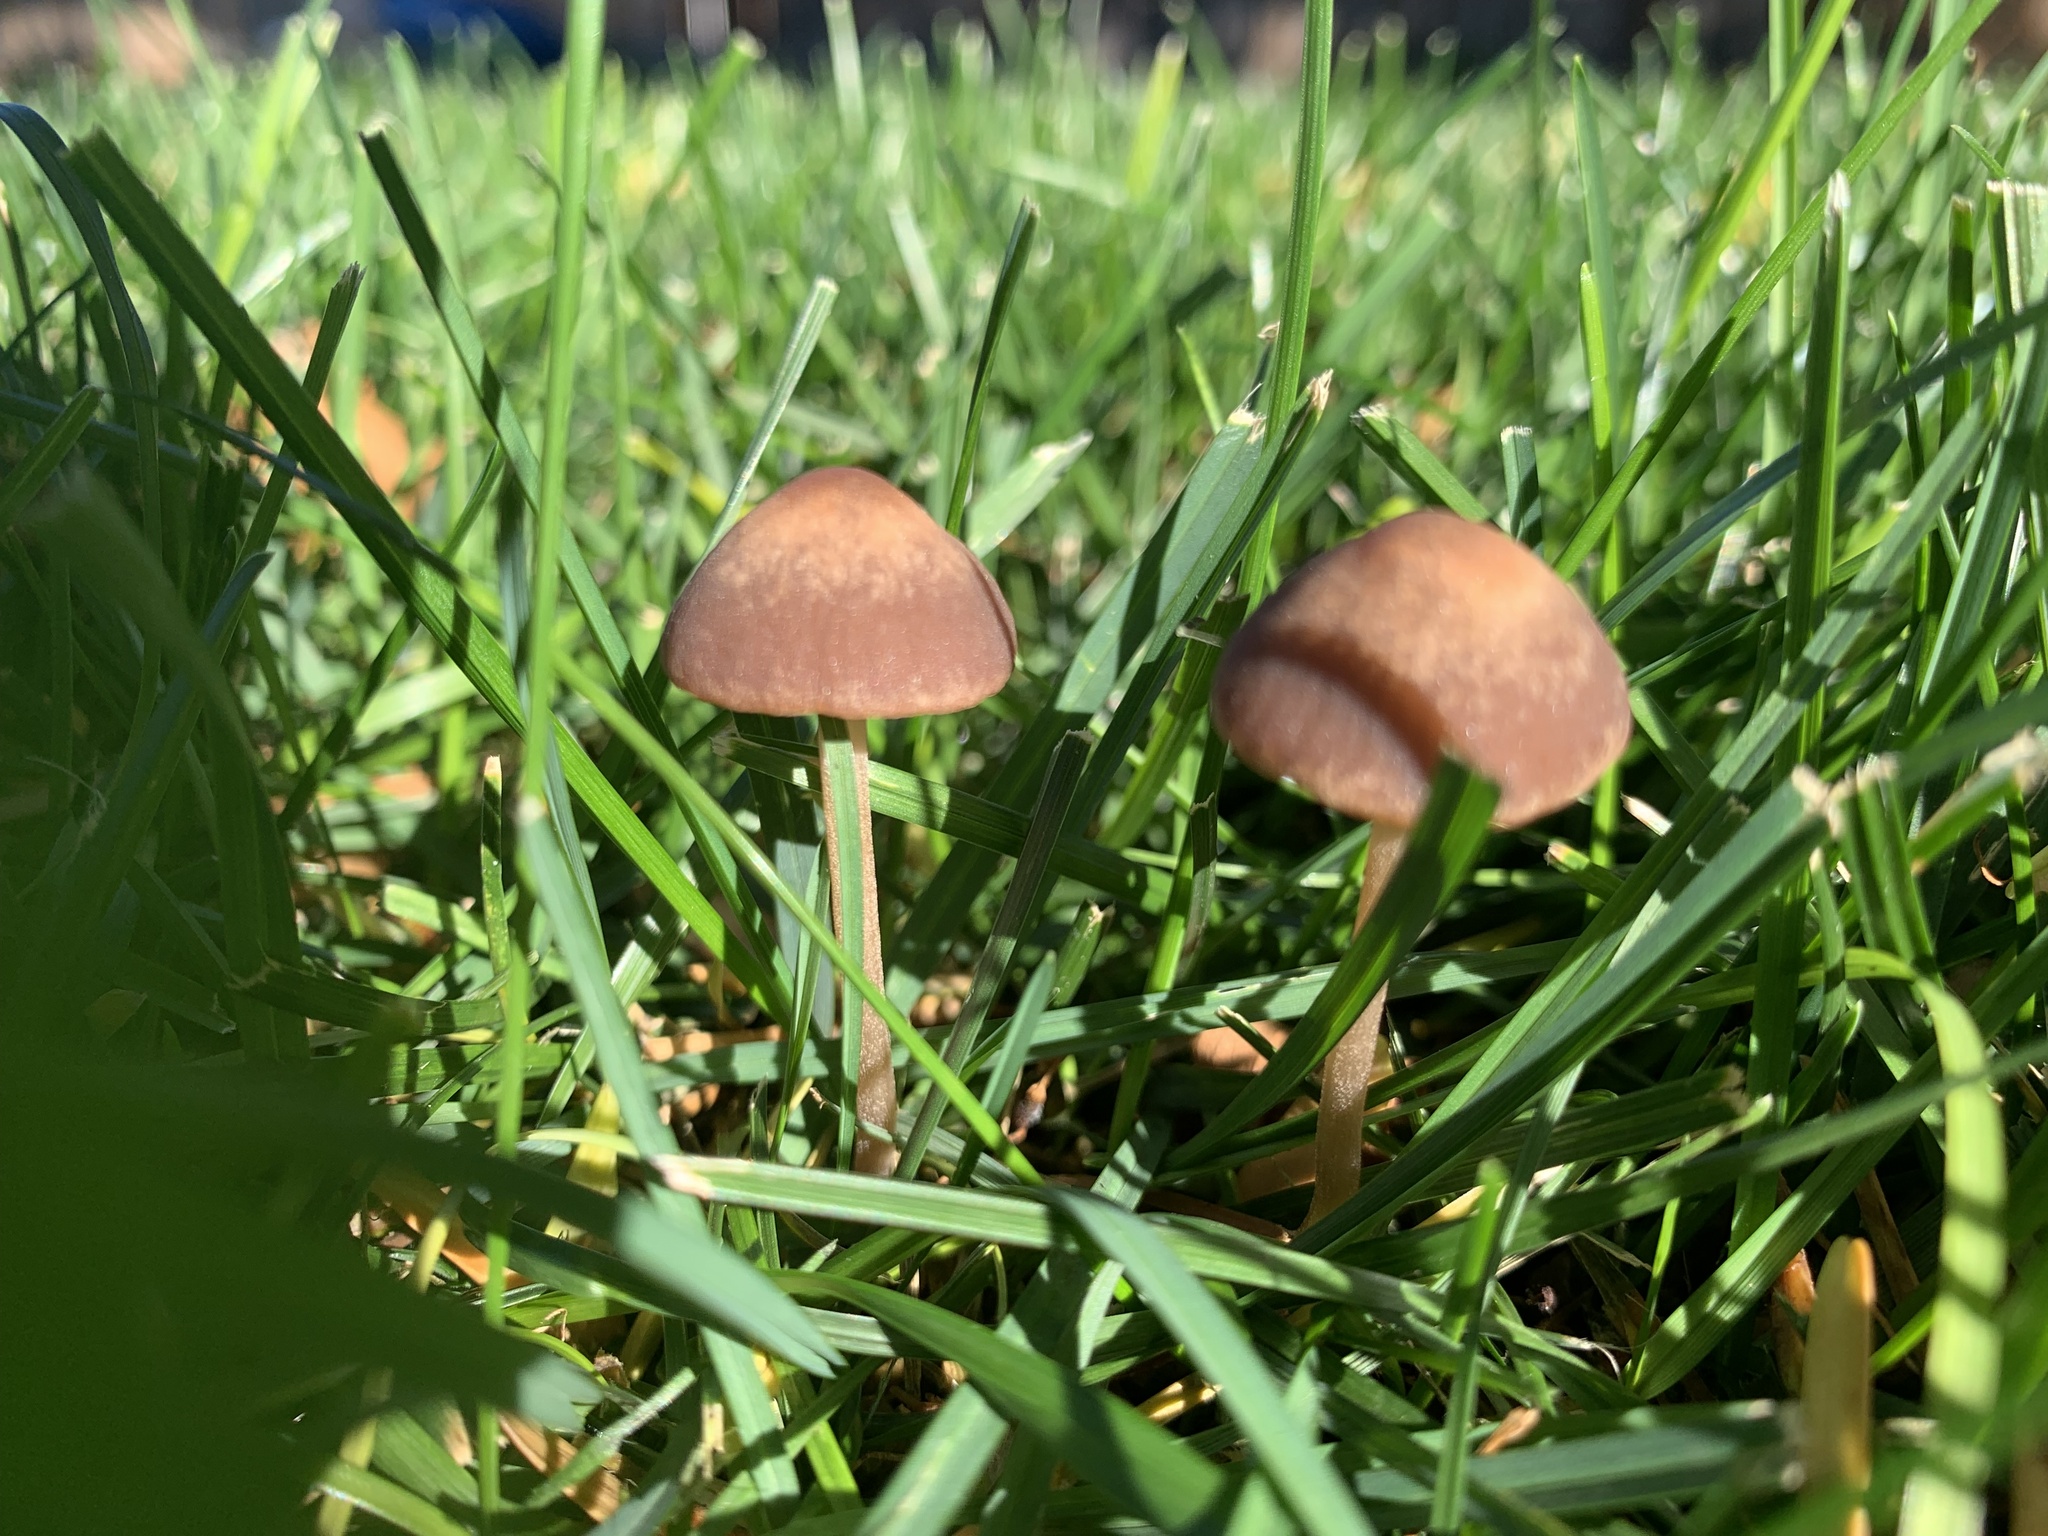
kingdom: Fungi
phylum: Basidiomycota
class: Agaricomycetes
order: Agaricales
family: Bolbitiaceae
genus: Panaeolina
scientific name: Panaeolina foenisecii
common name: Brown hay cap
